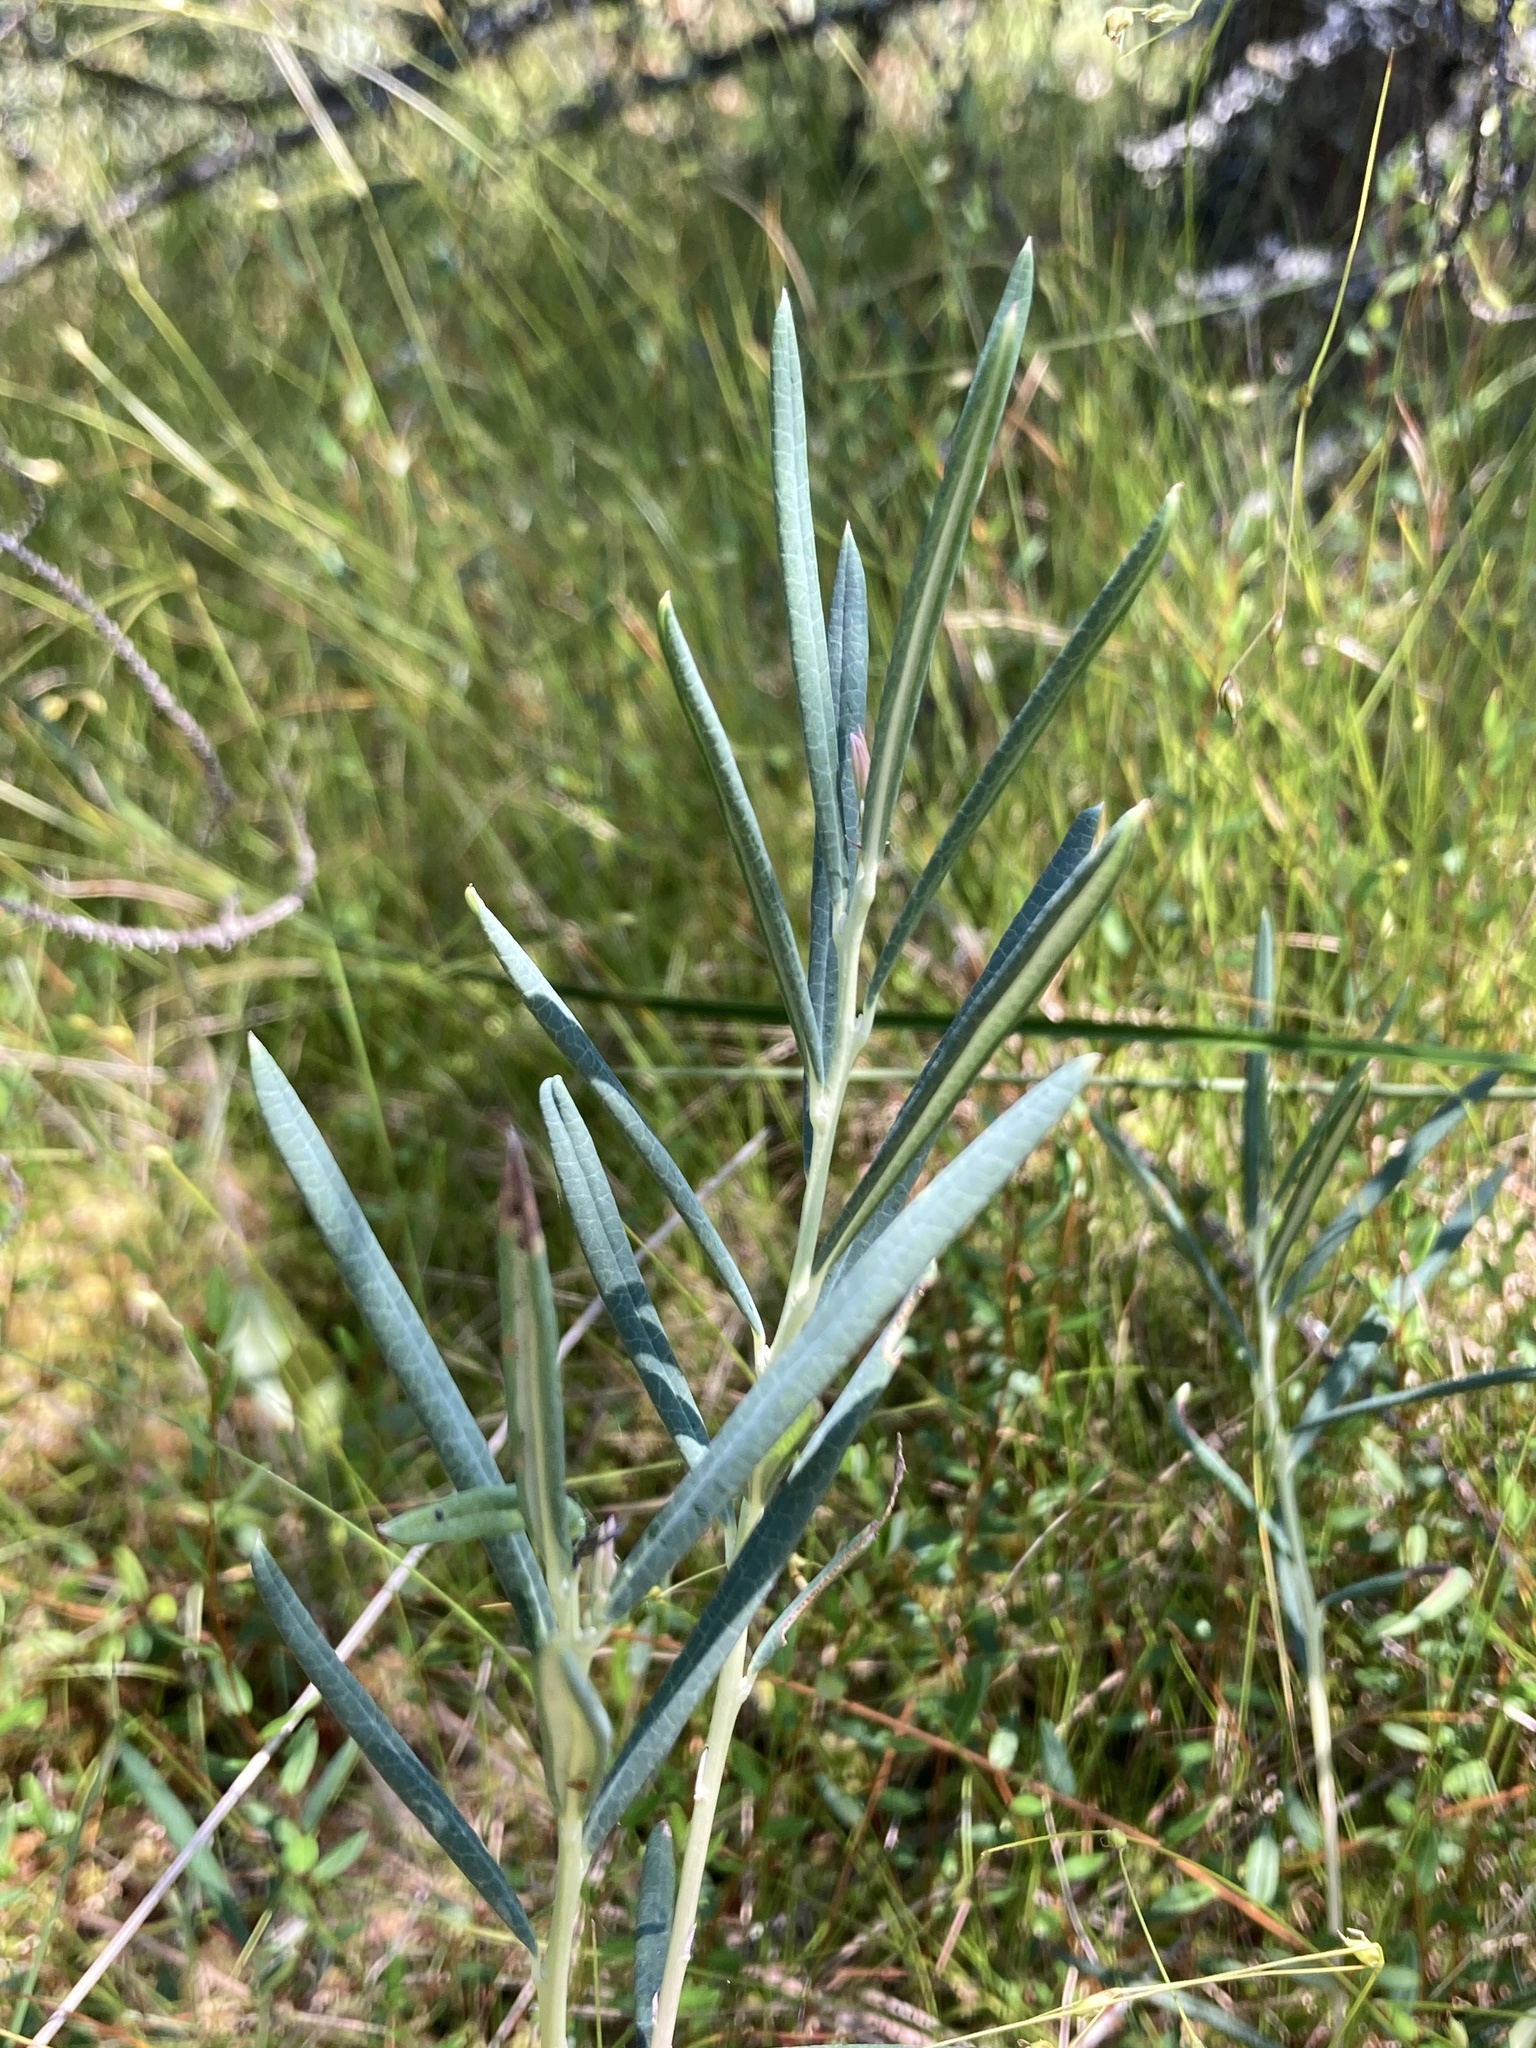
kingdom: Plantae
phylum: Tracheophyta
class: Magnoliopsida
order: Ericales
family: Ericaceae
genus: Andromeda
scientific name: Andromeda polifolia
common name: Bog-rosemary
